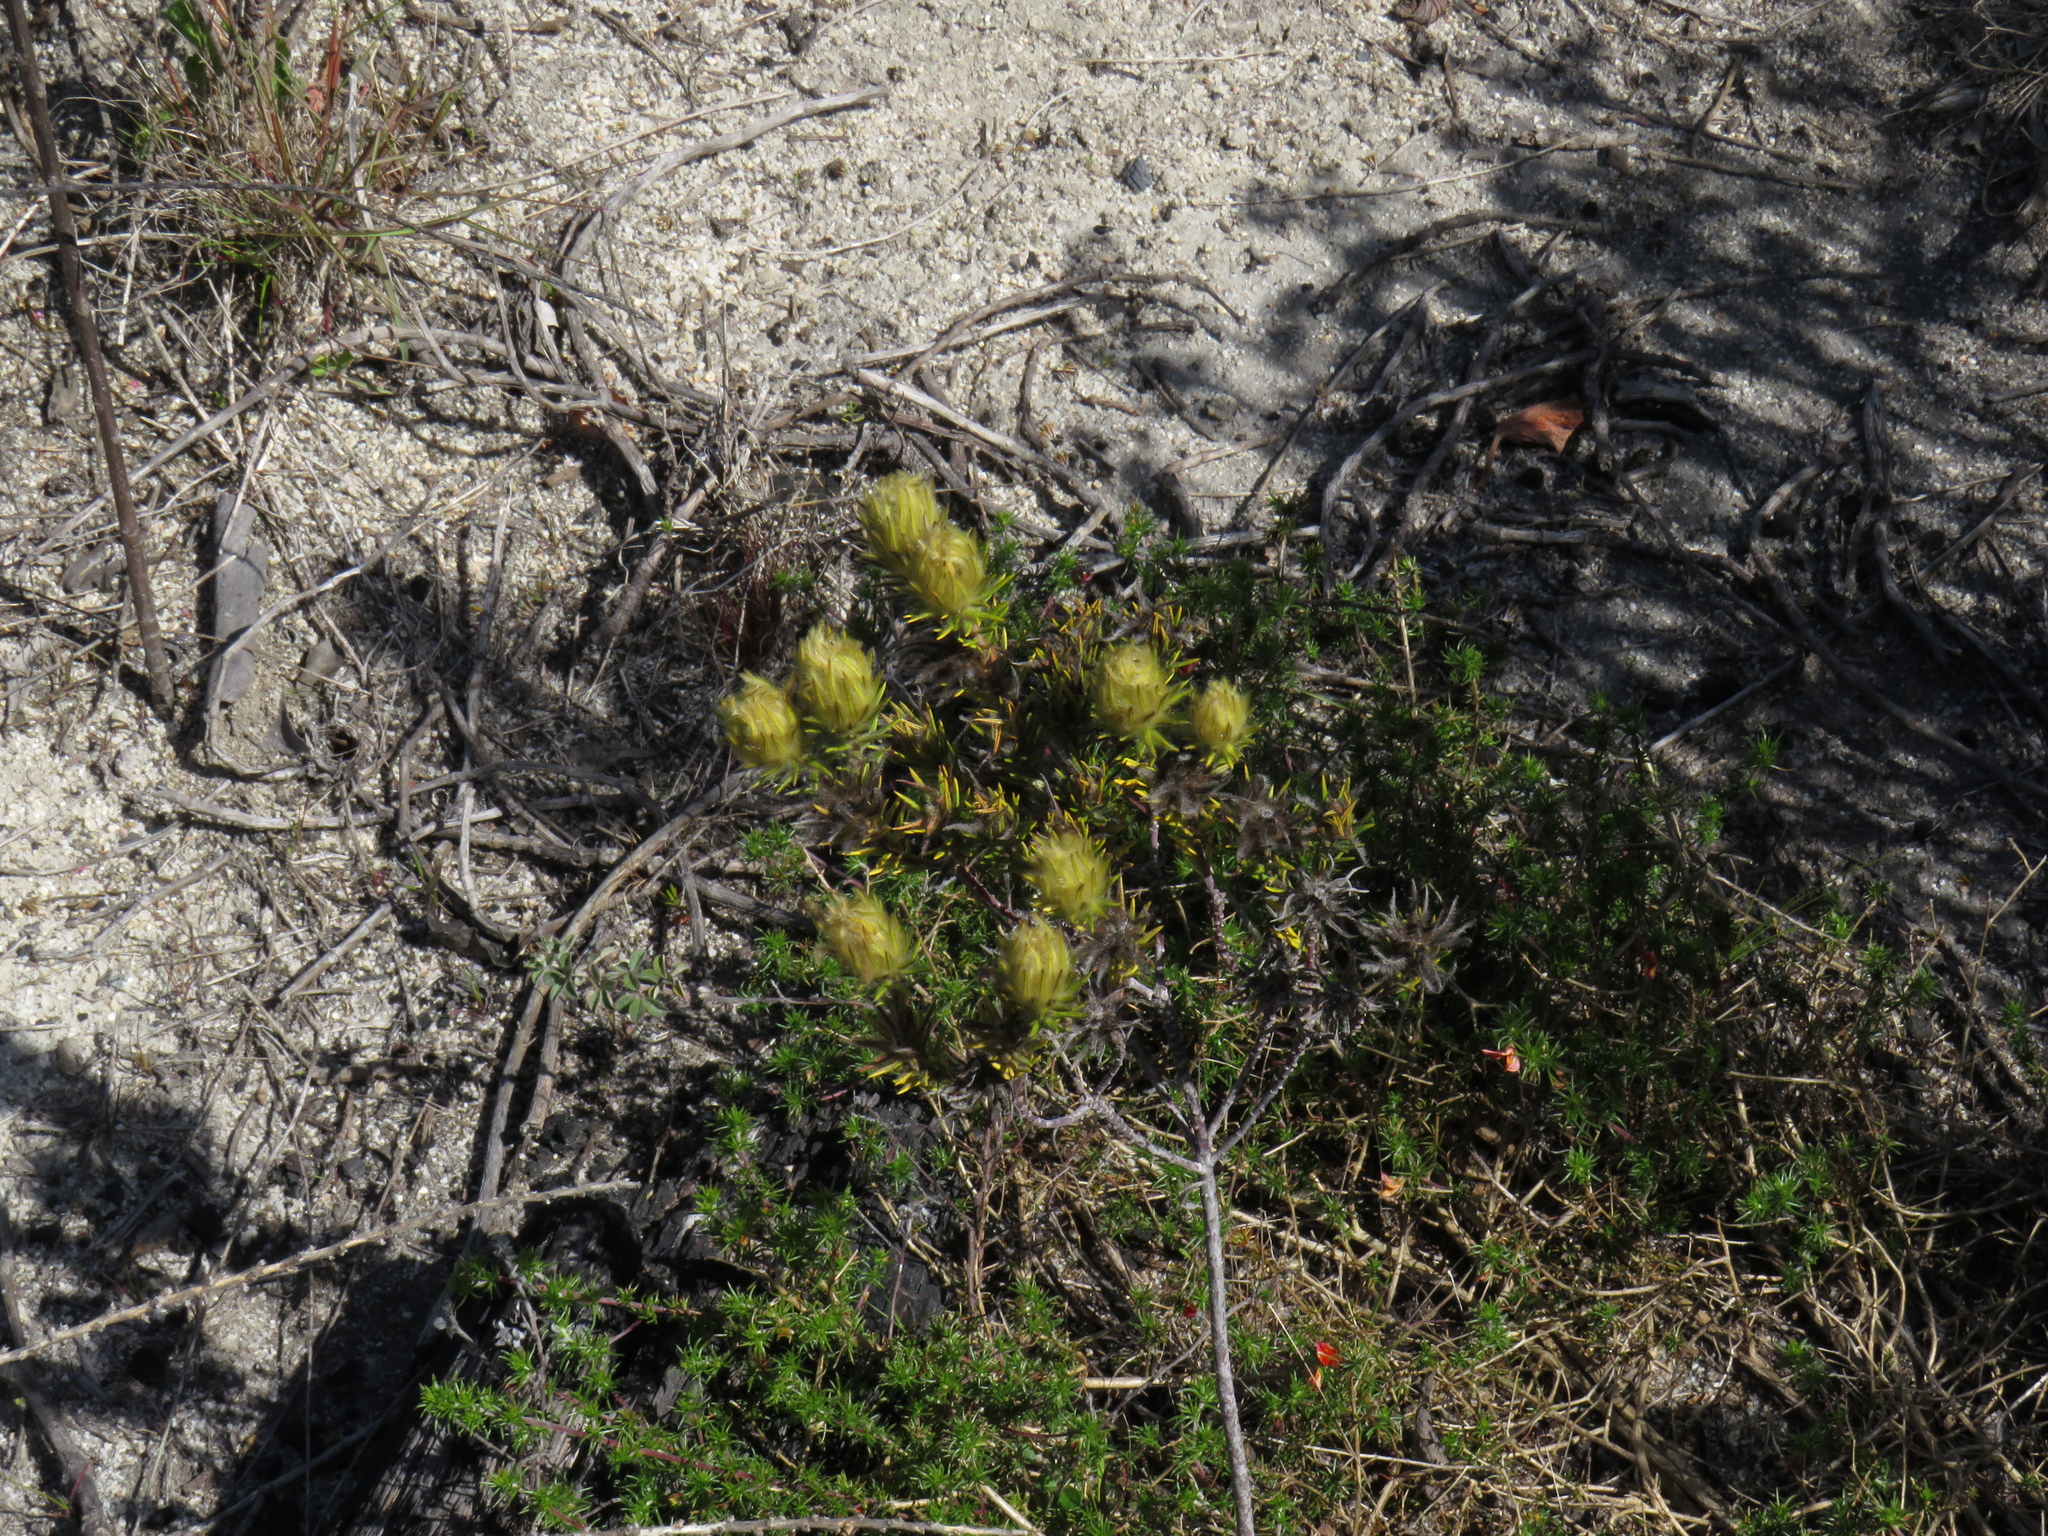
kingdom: Plantae
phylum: Tracheophyta
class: Magnoliopsida
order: Rosales
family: Rhamnaceae
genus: Phylica
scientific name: Phylica plumosa
